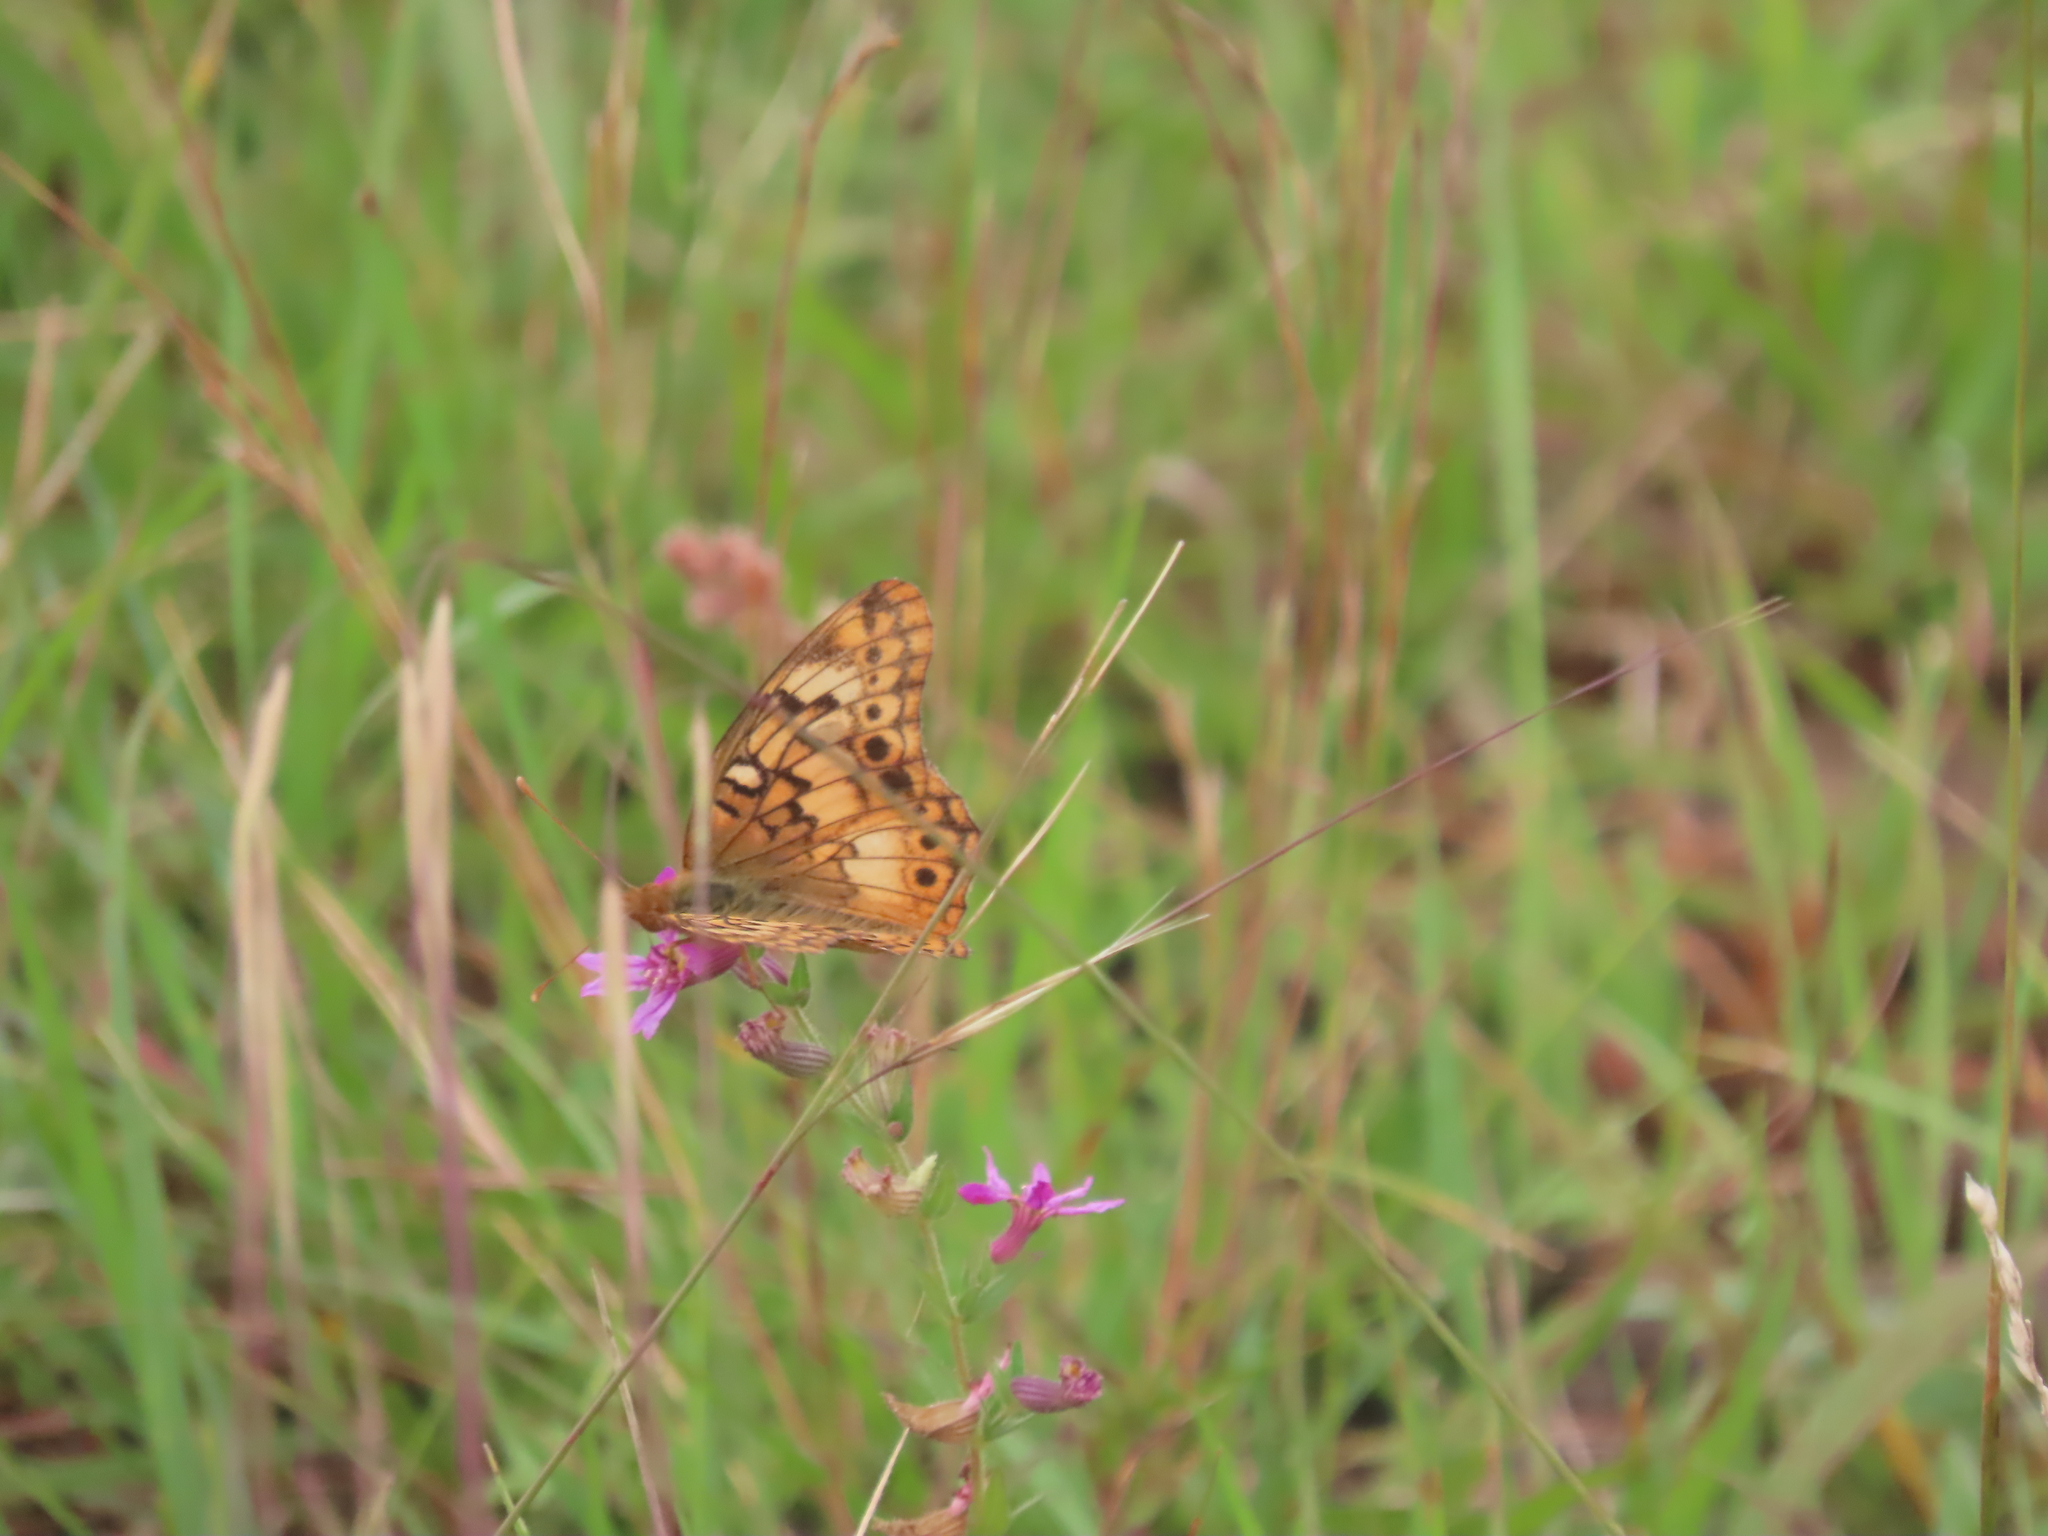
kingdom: Animalia
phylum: Arthropoda
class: Insecta
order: Lepidoptera
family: Nymphalidae
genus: Euptoieta
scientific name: Euptoieta hortensia
